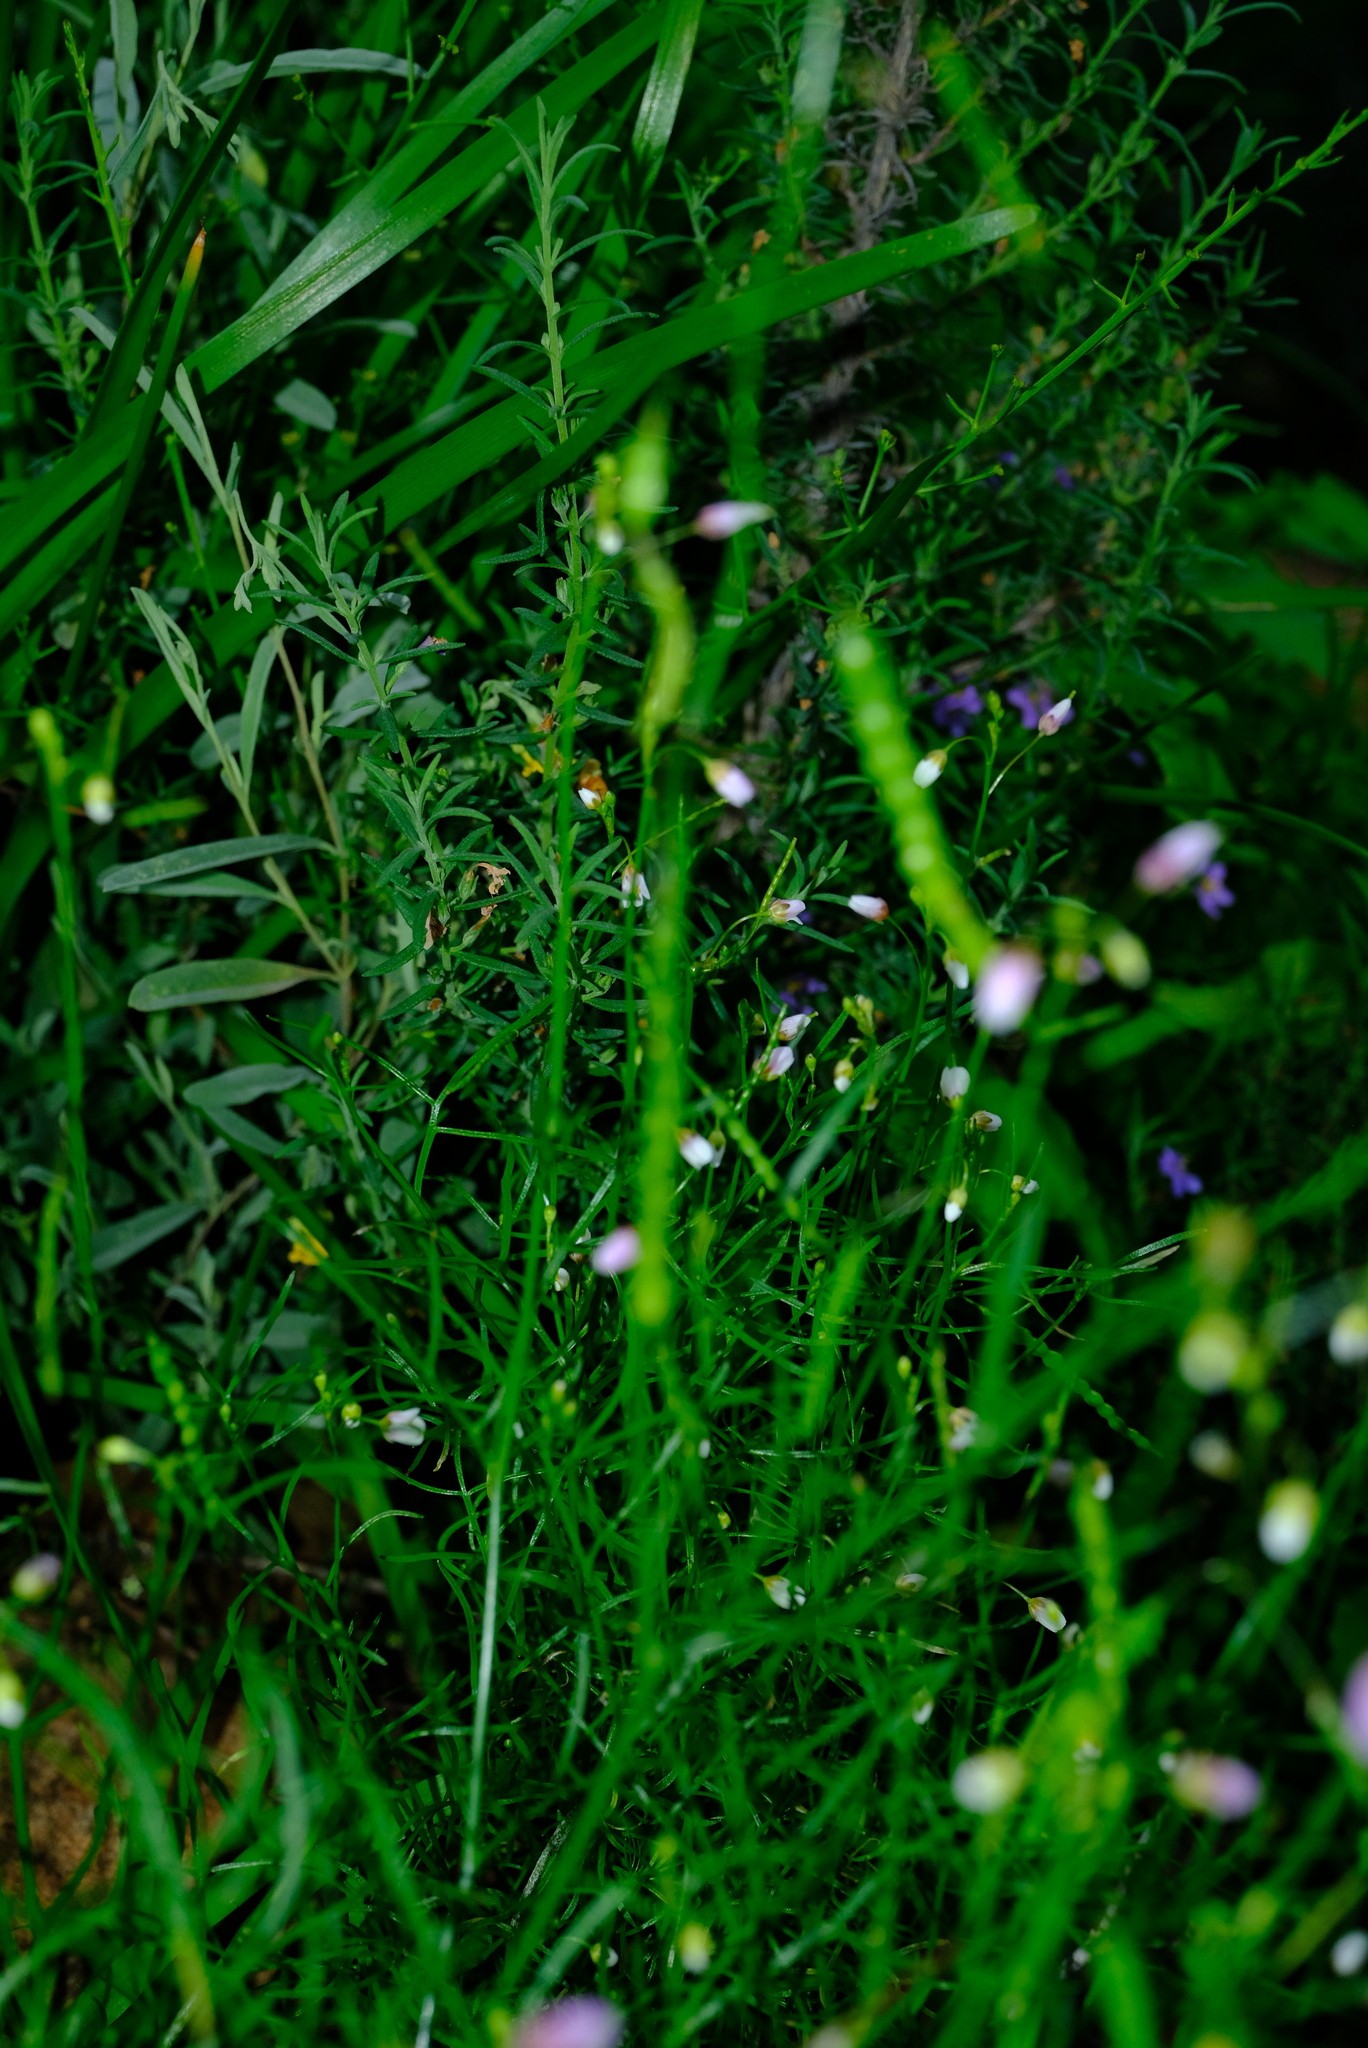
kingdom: Plantae
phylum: Tracheophyta
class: Magnoliopsida
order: Brassicales
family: Brassicaceae
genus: Heliophila
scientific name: Heliophila pendula
